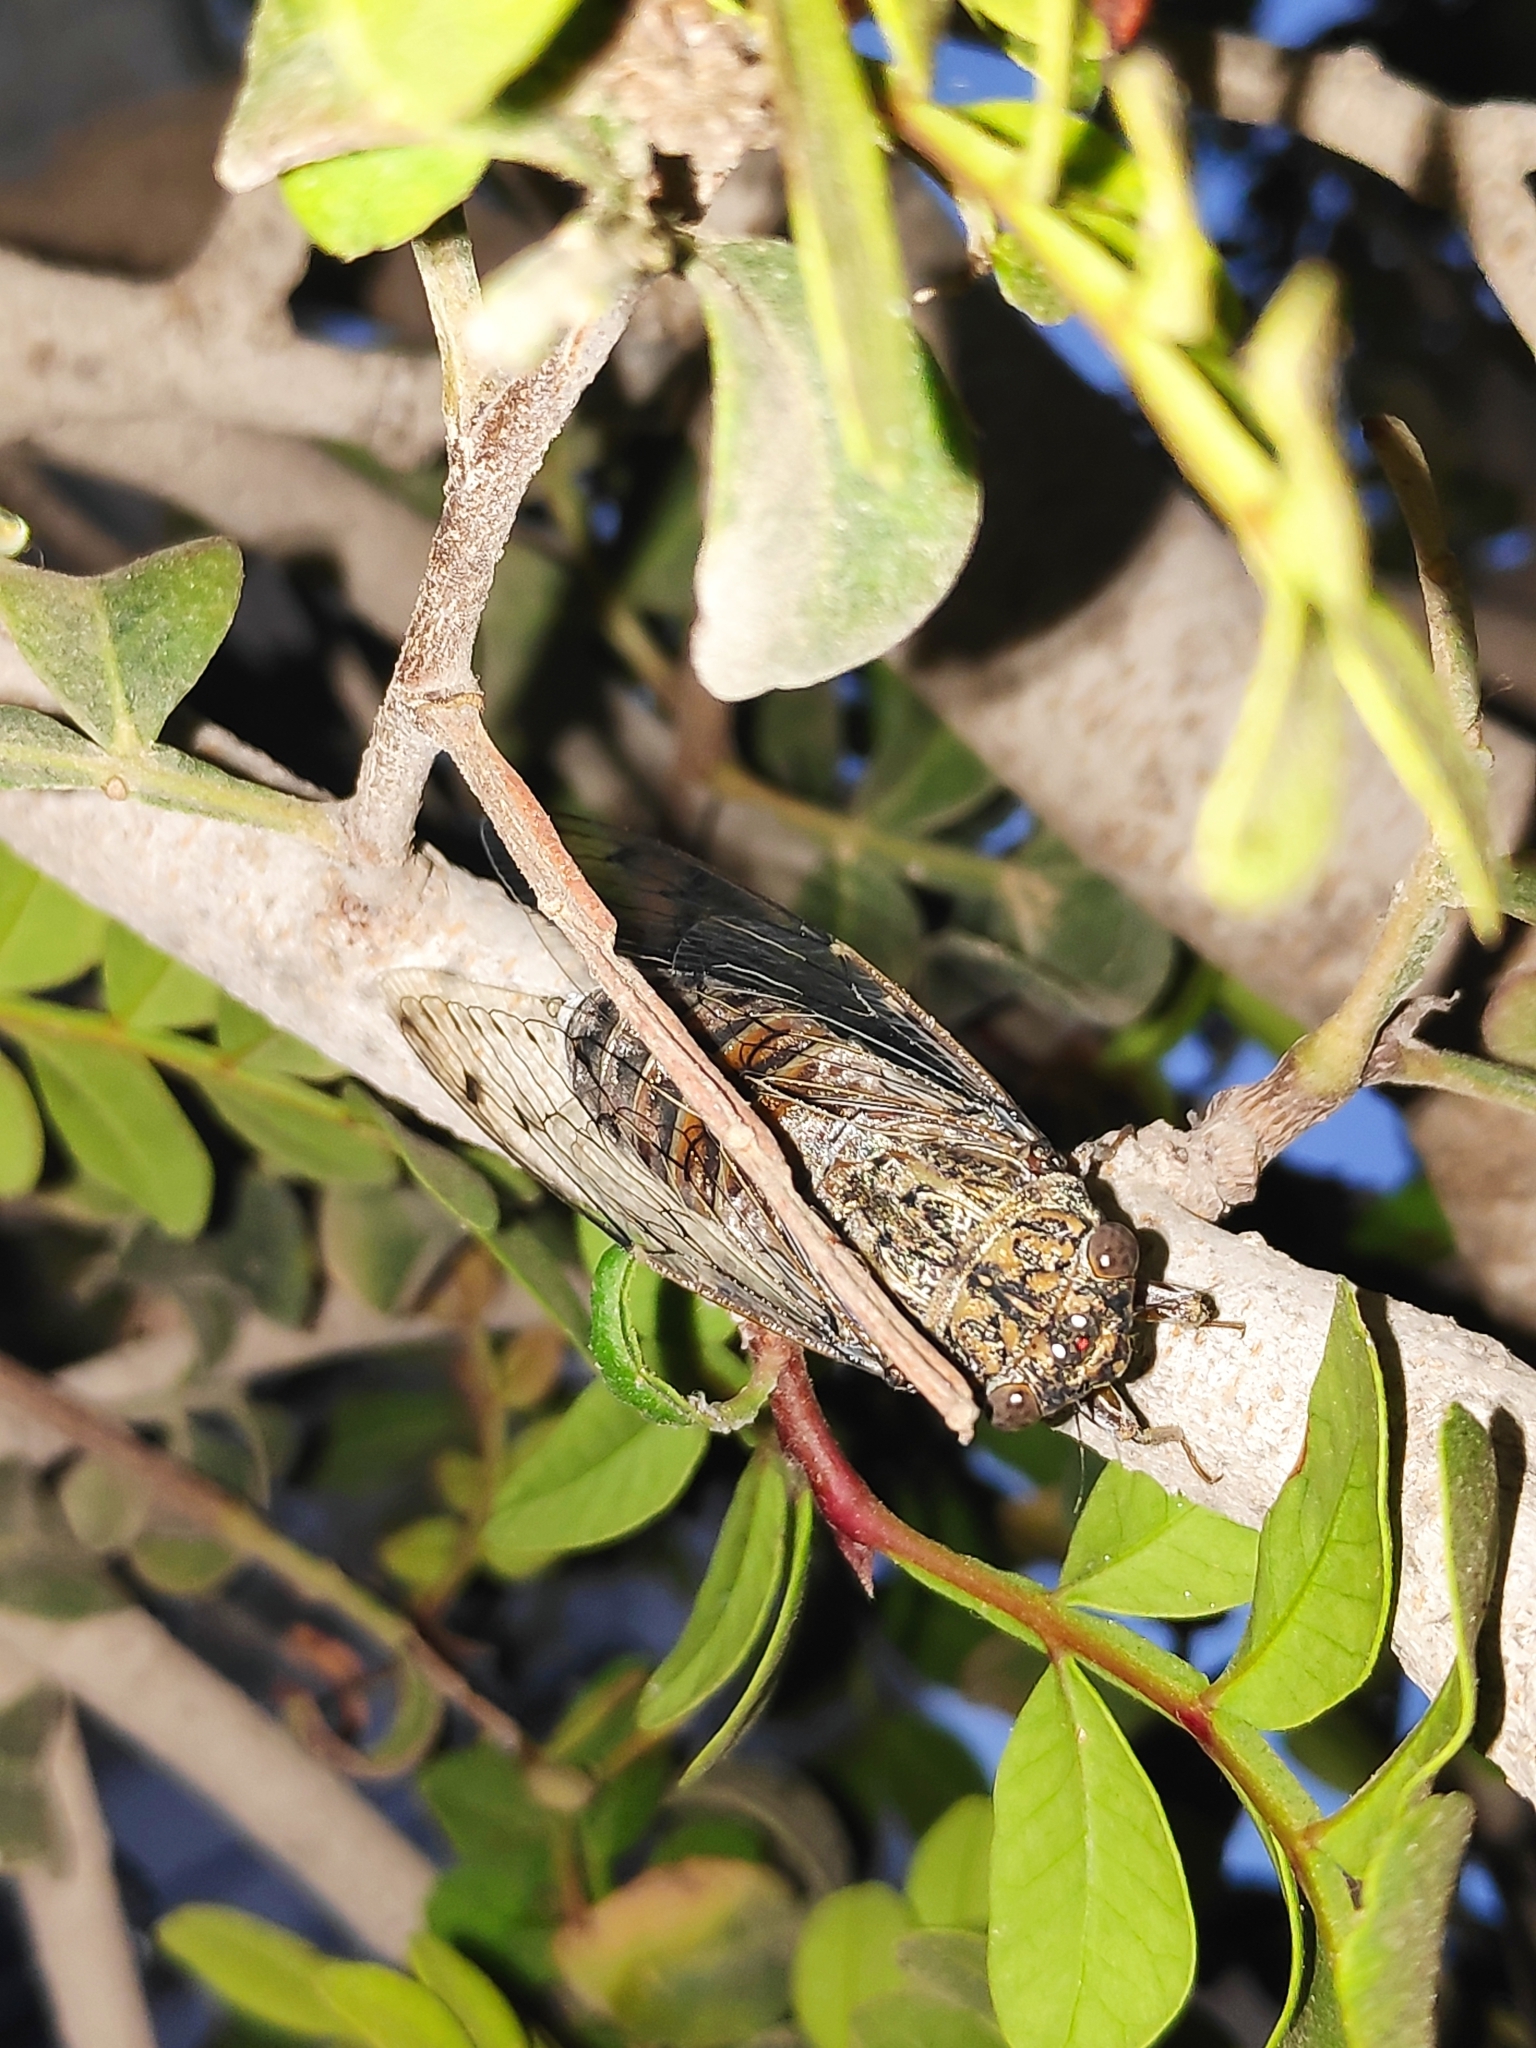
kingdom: Animalia
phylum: Arthropoda
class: Insecta
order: Hemiptera
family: Cicadidae
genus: Cicada
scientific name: Cicada barbara
